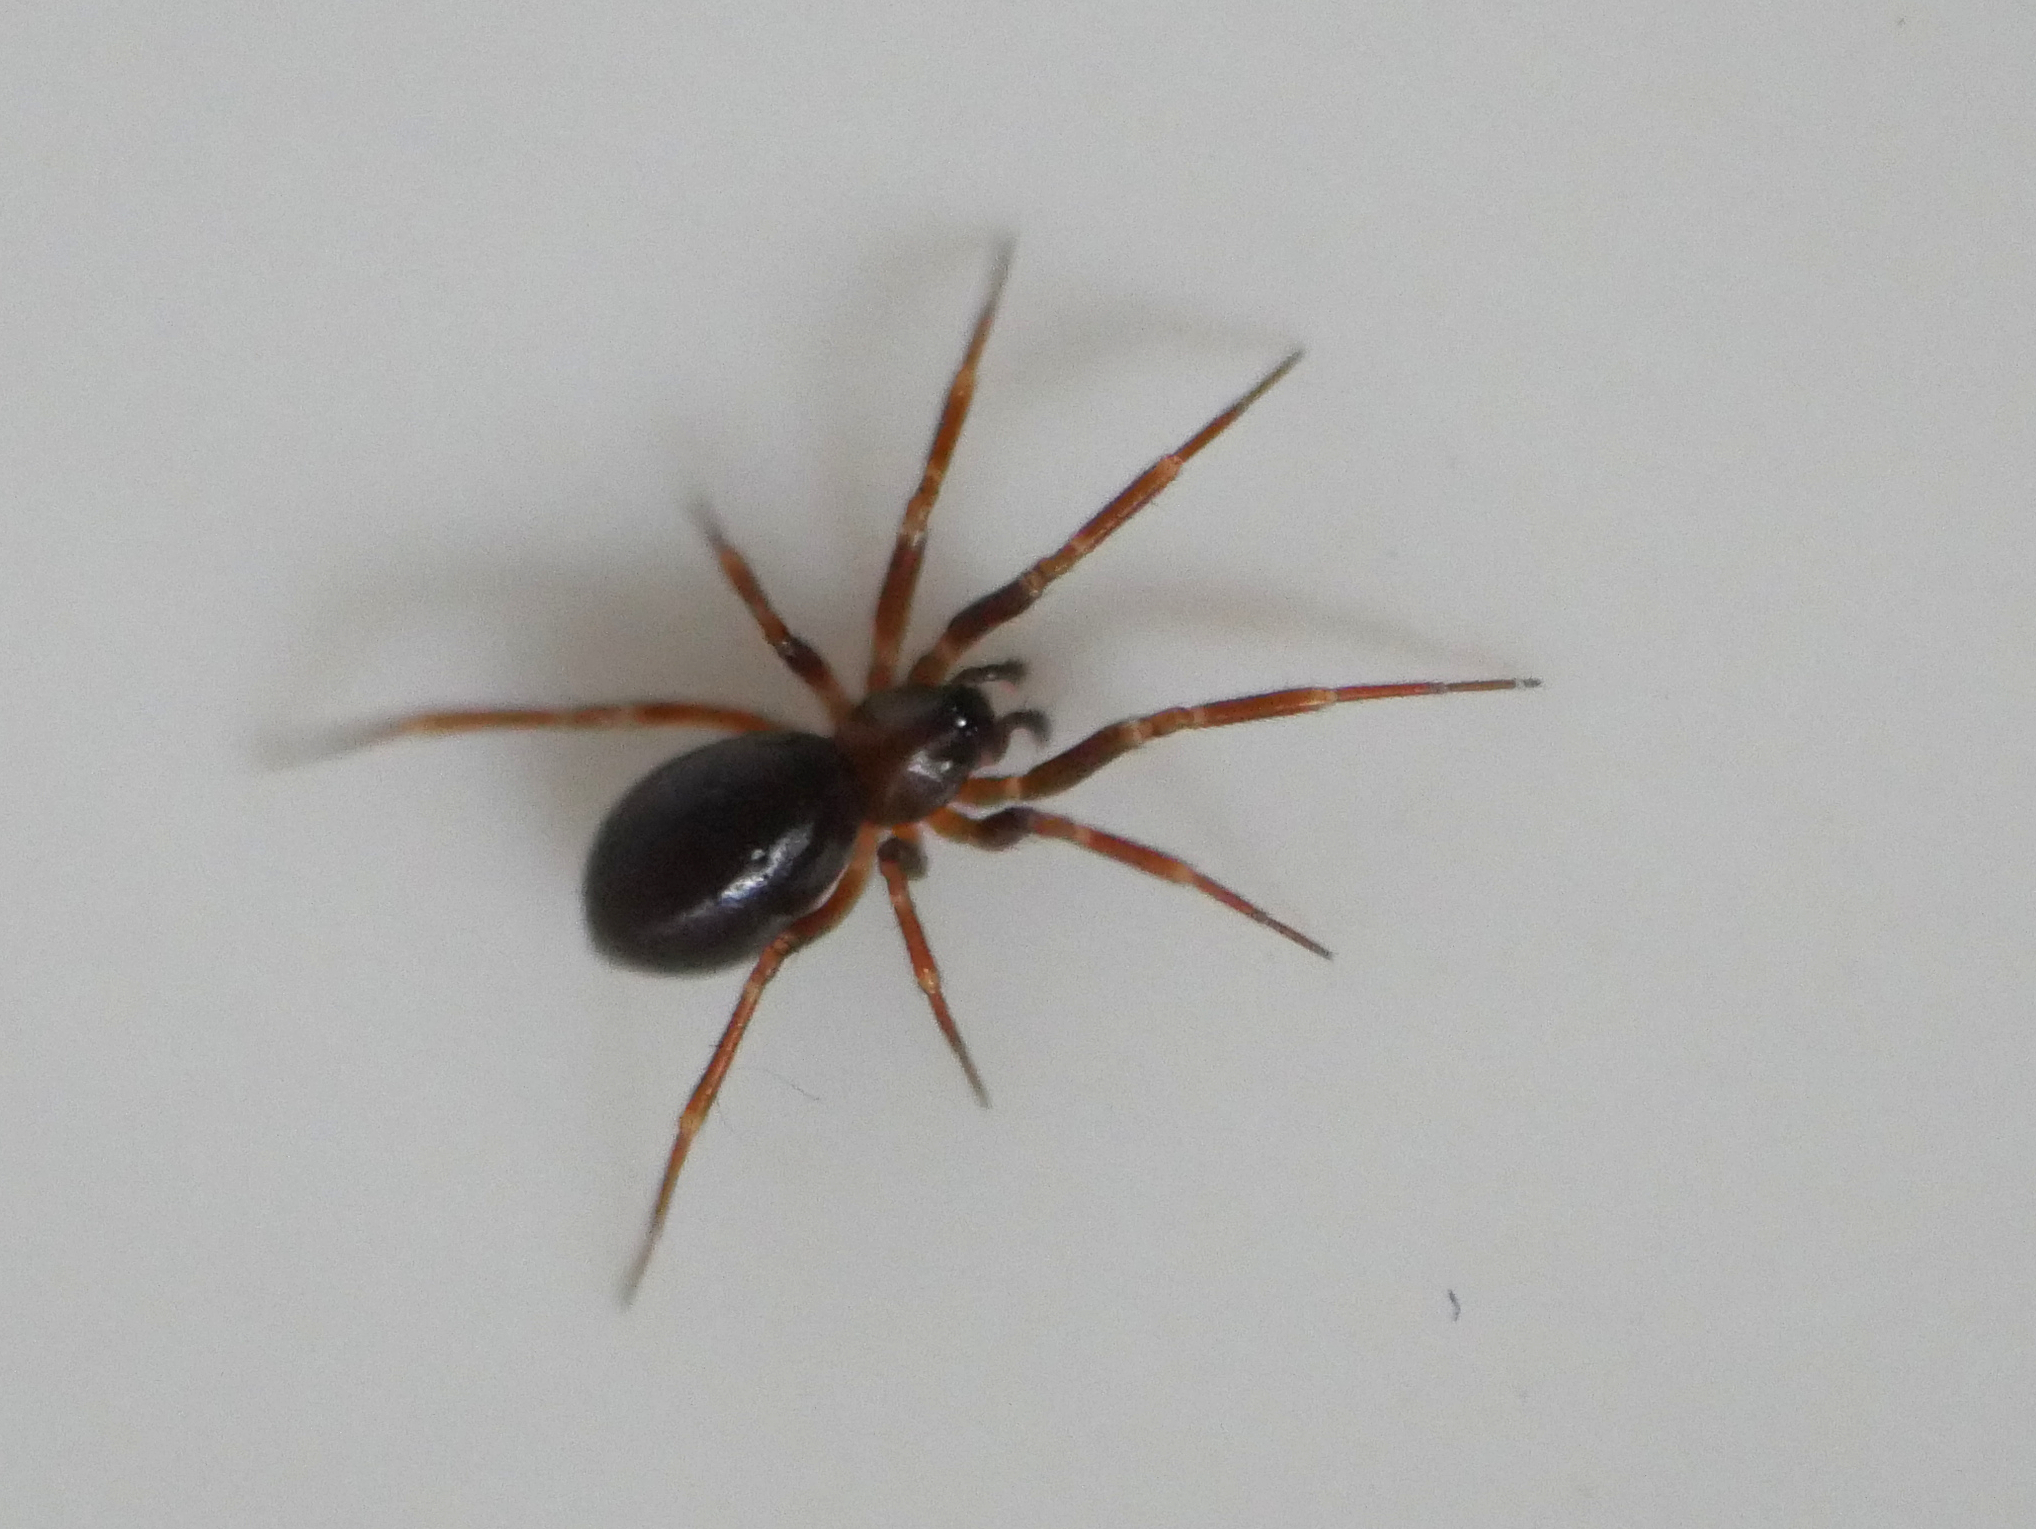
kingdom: Animalia
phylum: Arthropoda
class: Arachnida
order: Araneae
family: Linyphiidae
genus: Microneta
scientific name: Microneta viaria
